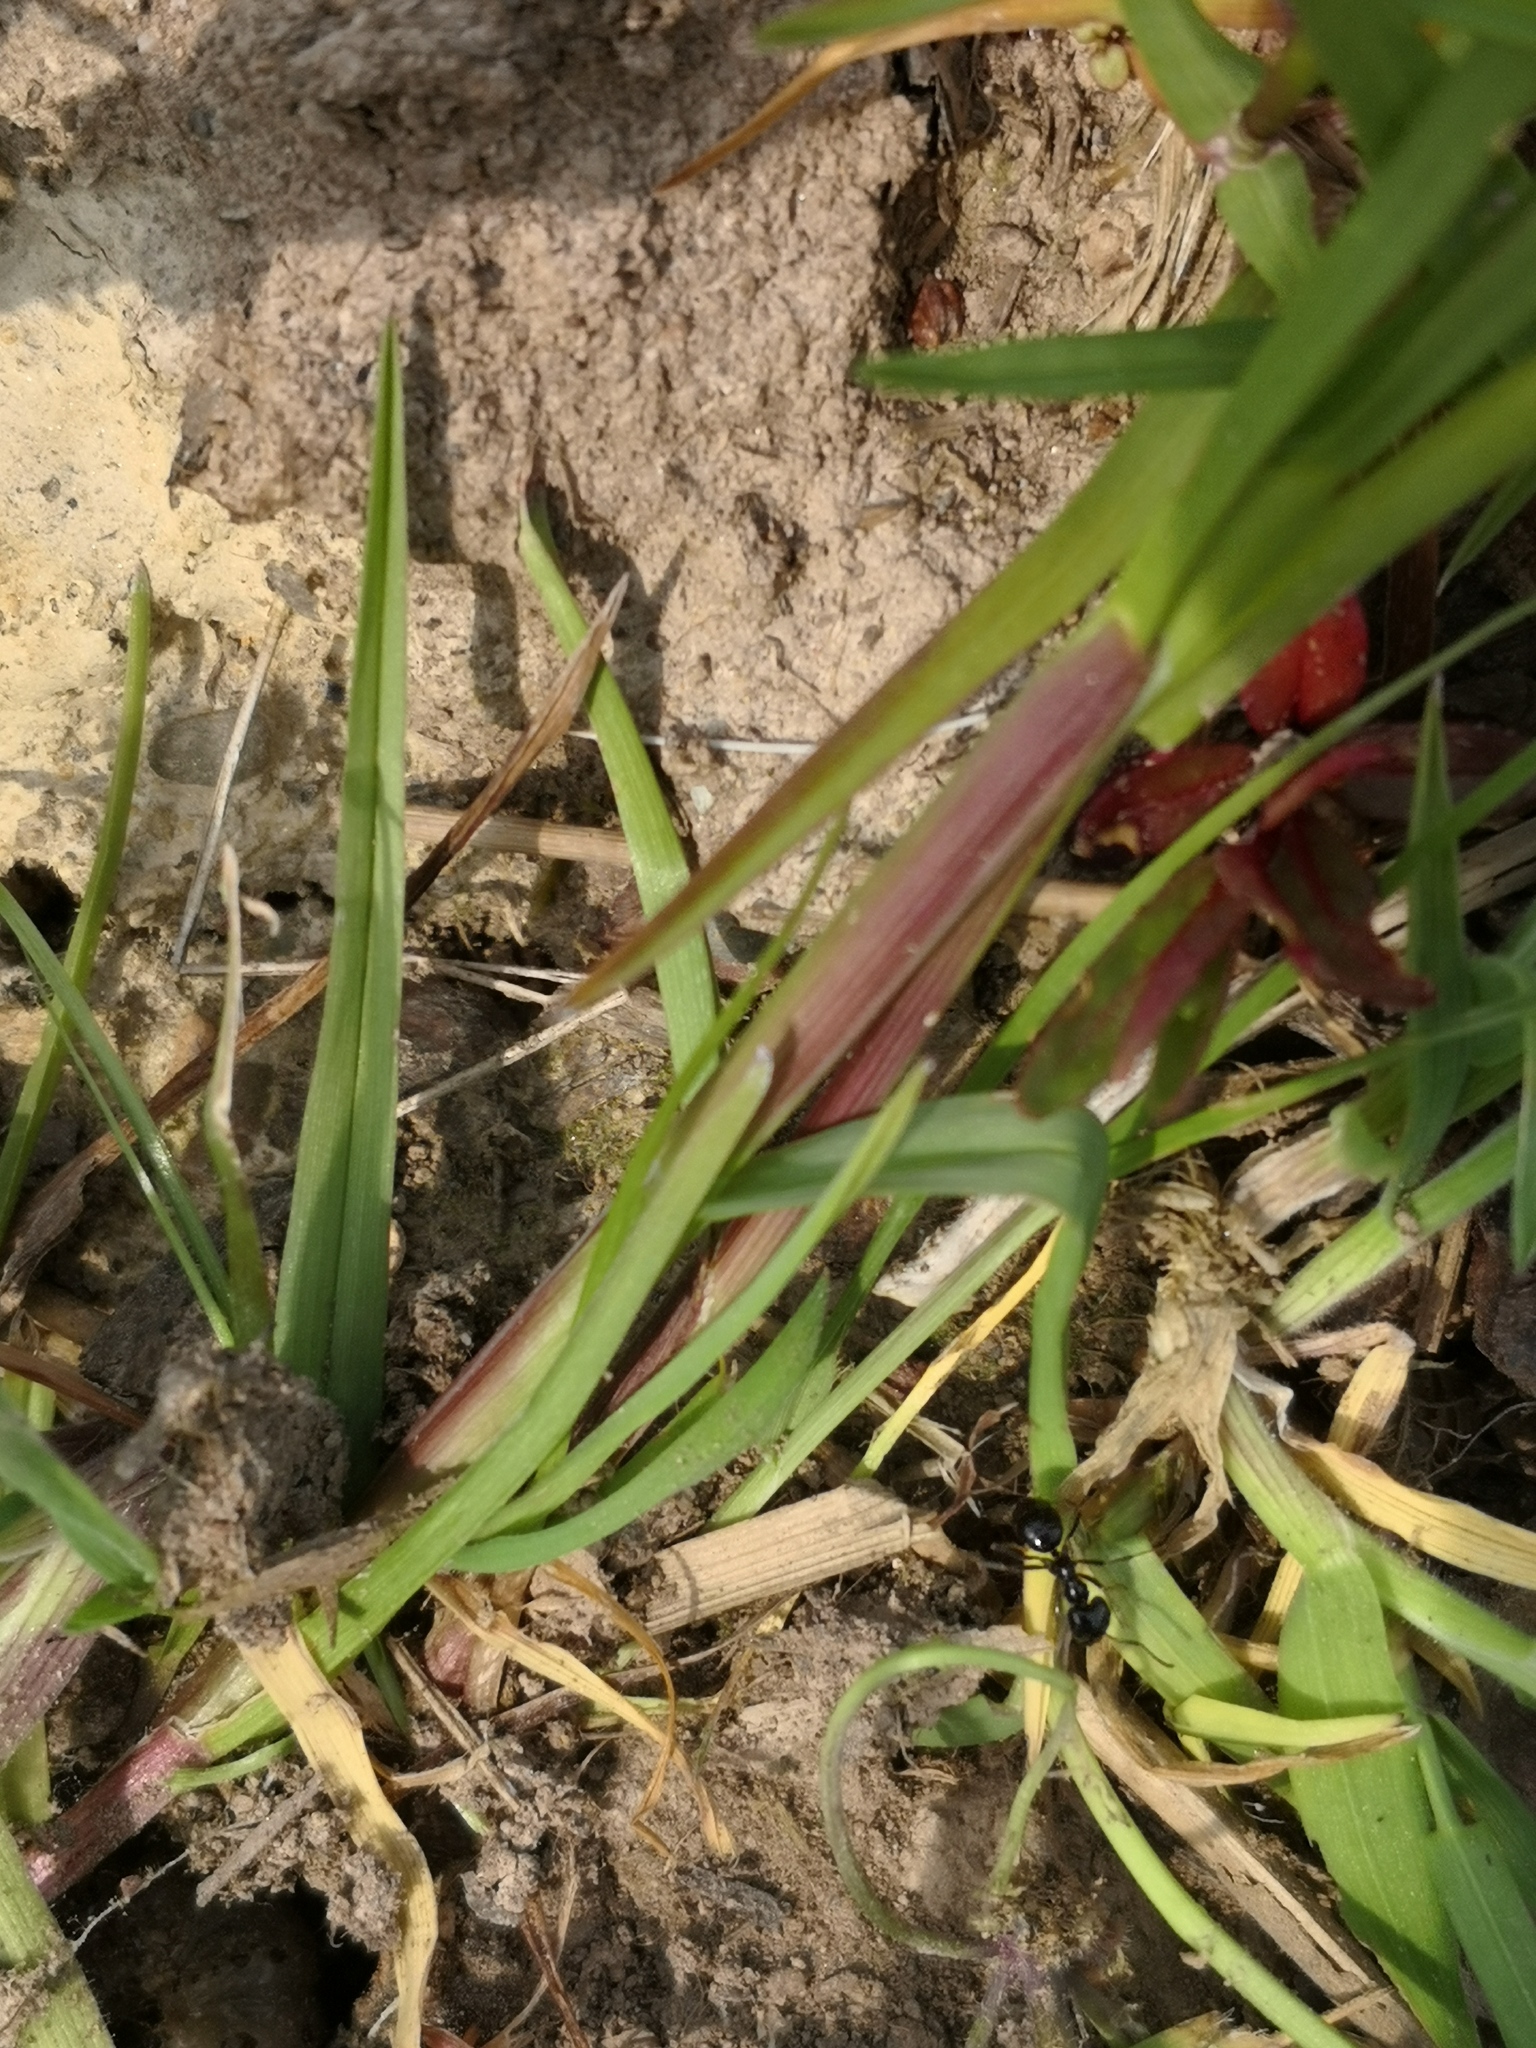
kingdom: Animalia
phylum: Arthropoda
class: Insecta
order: Hymenoptera
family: Formicidae
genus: Lasius
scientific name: Lasius fuliginosus
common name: Jet ant
